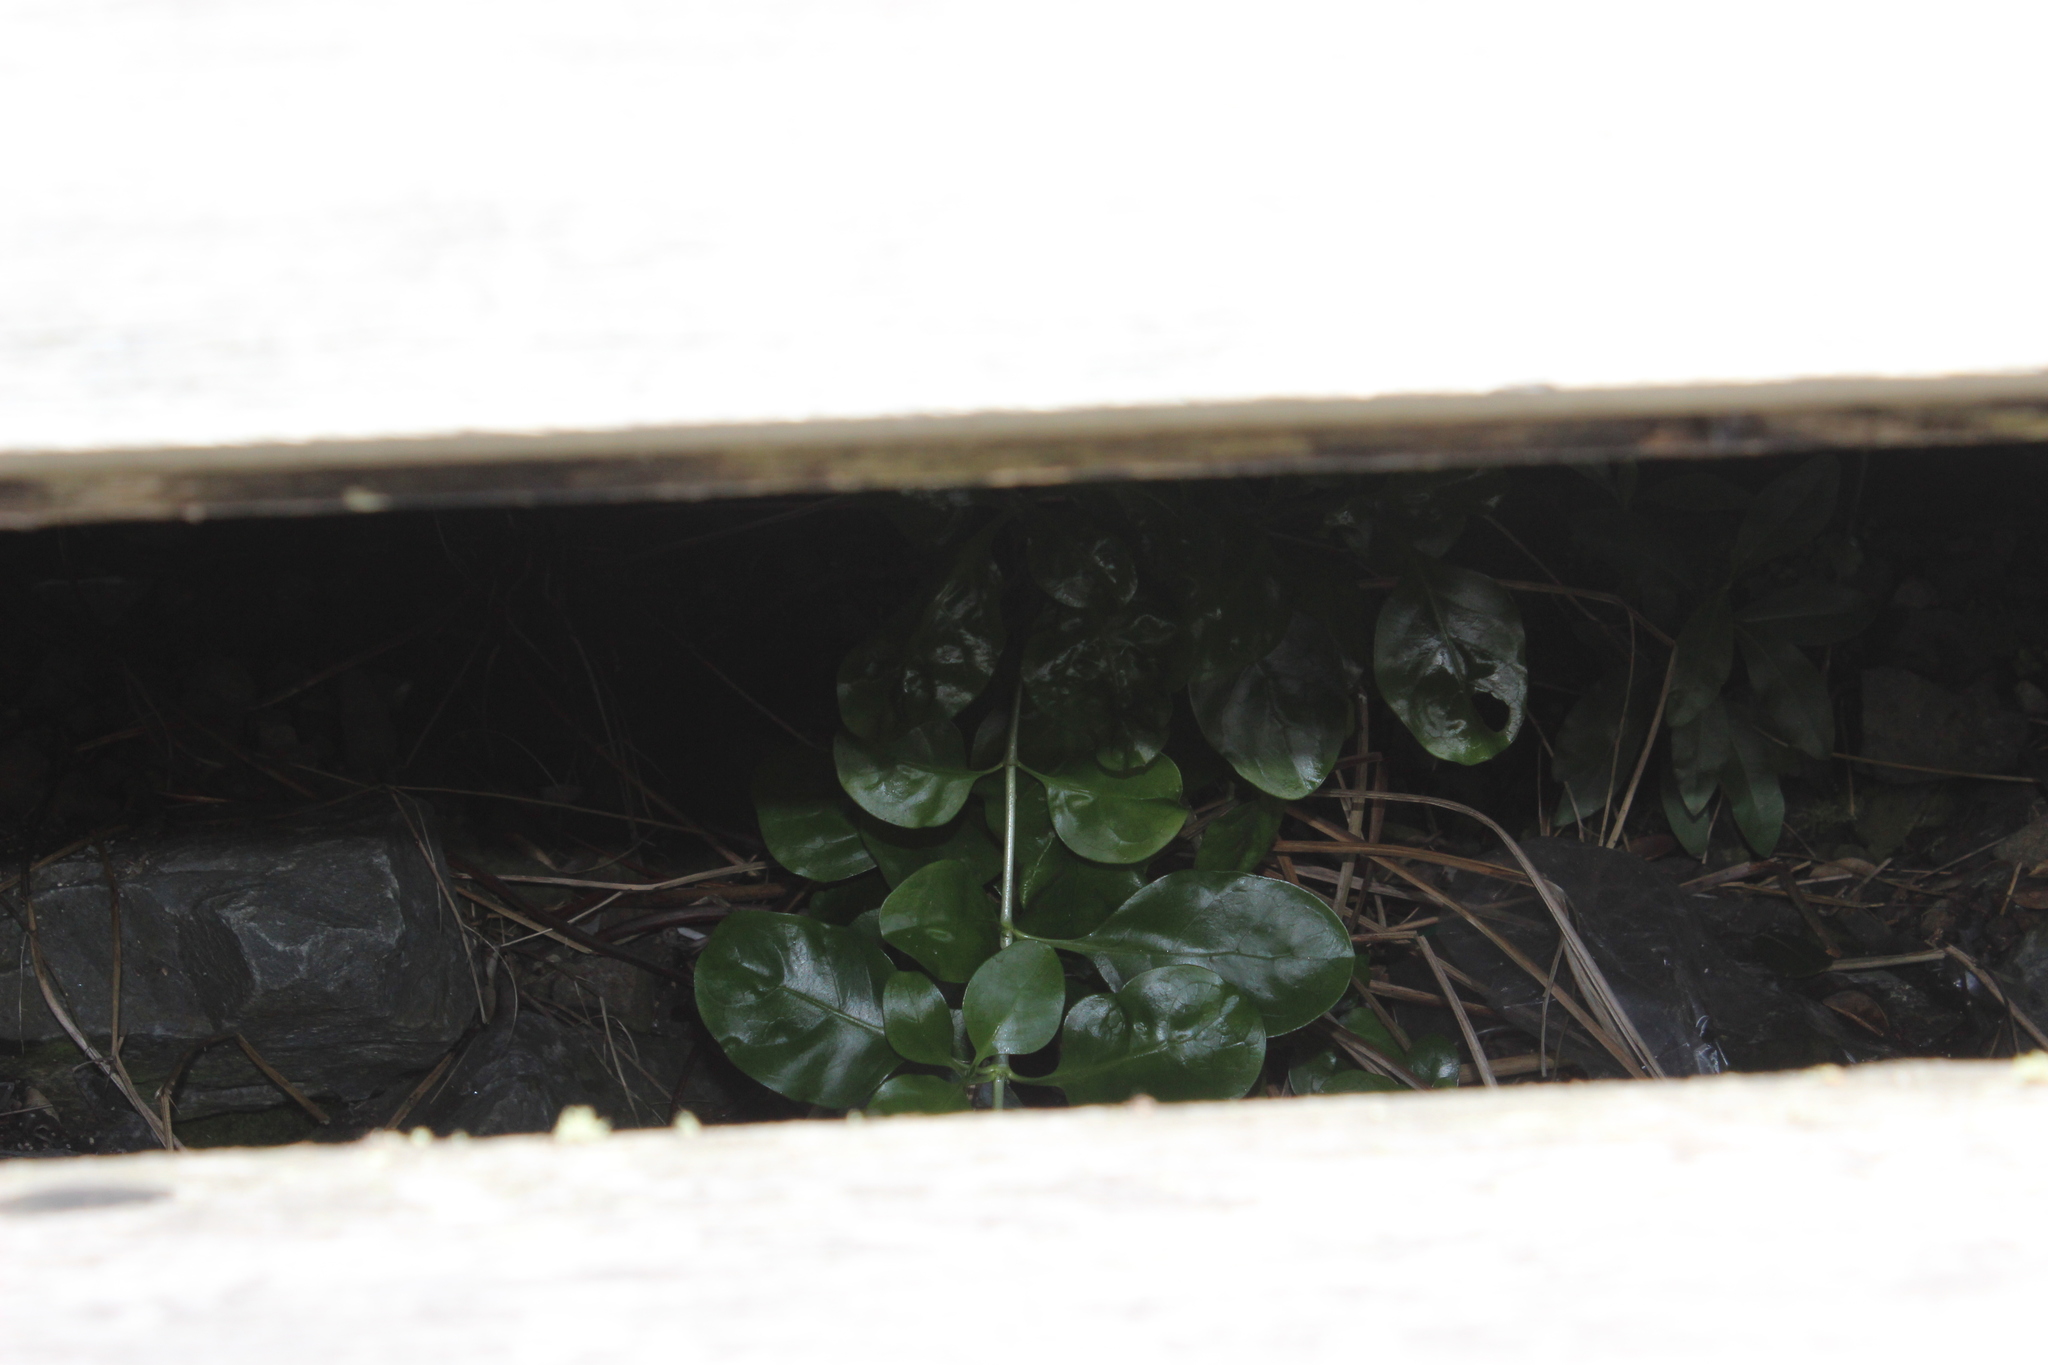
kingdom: Plantae
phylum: Tracheophyta
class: Magnoliopsida
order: Gentianales
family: Rubiaceae
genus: Coprosma
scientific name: Coprosma repens
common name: Tree bedstraw
